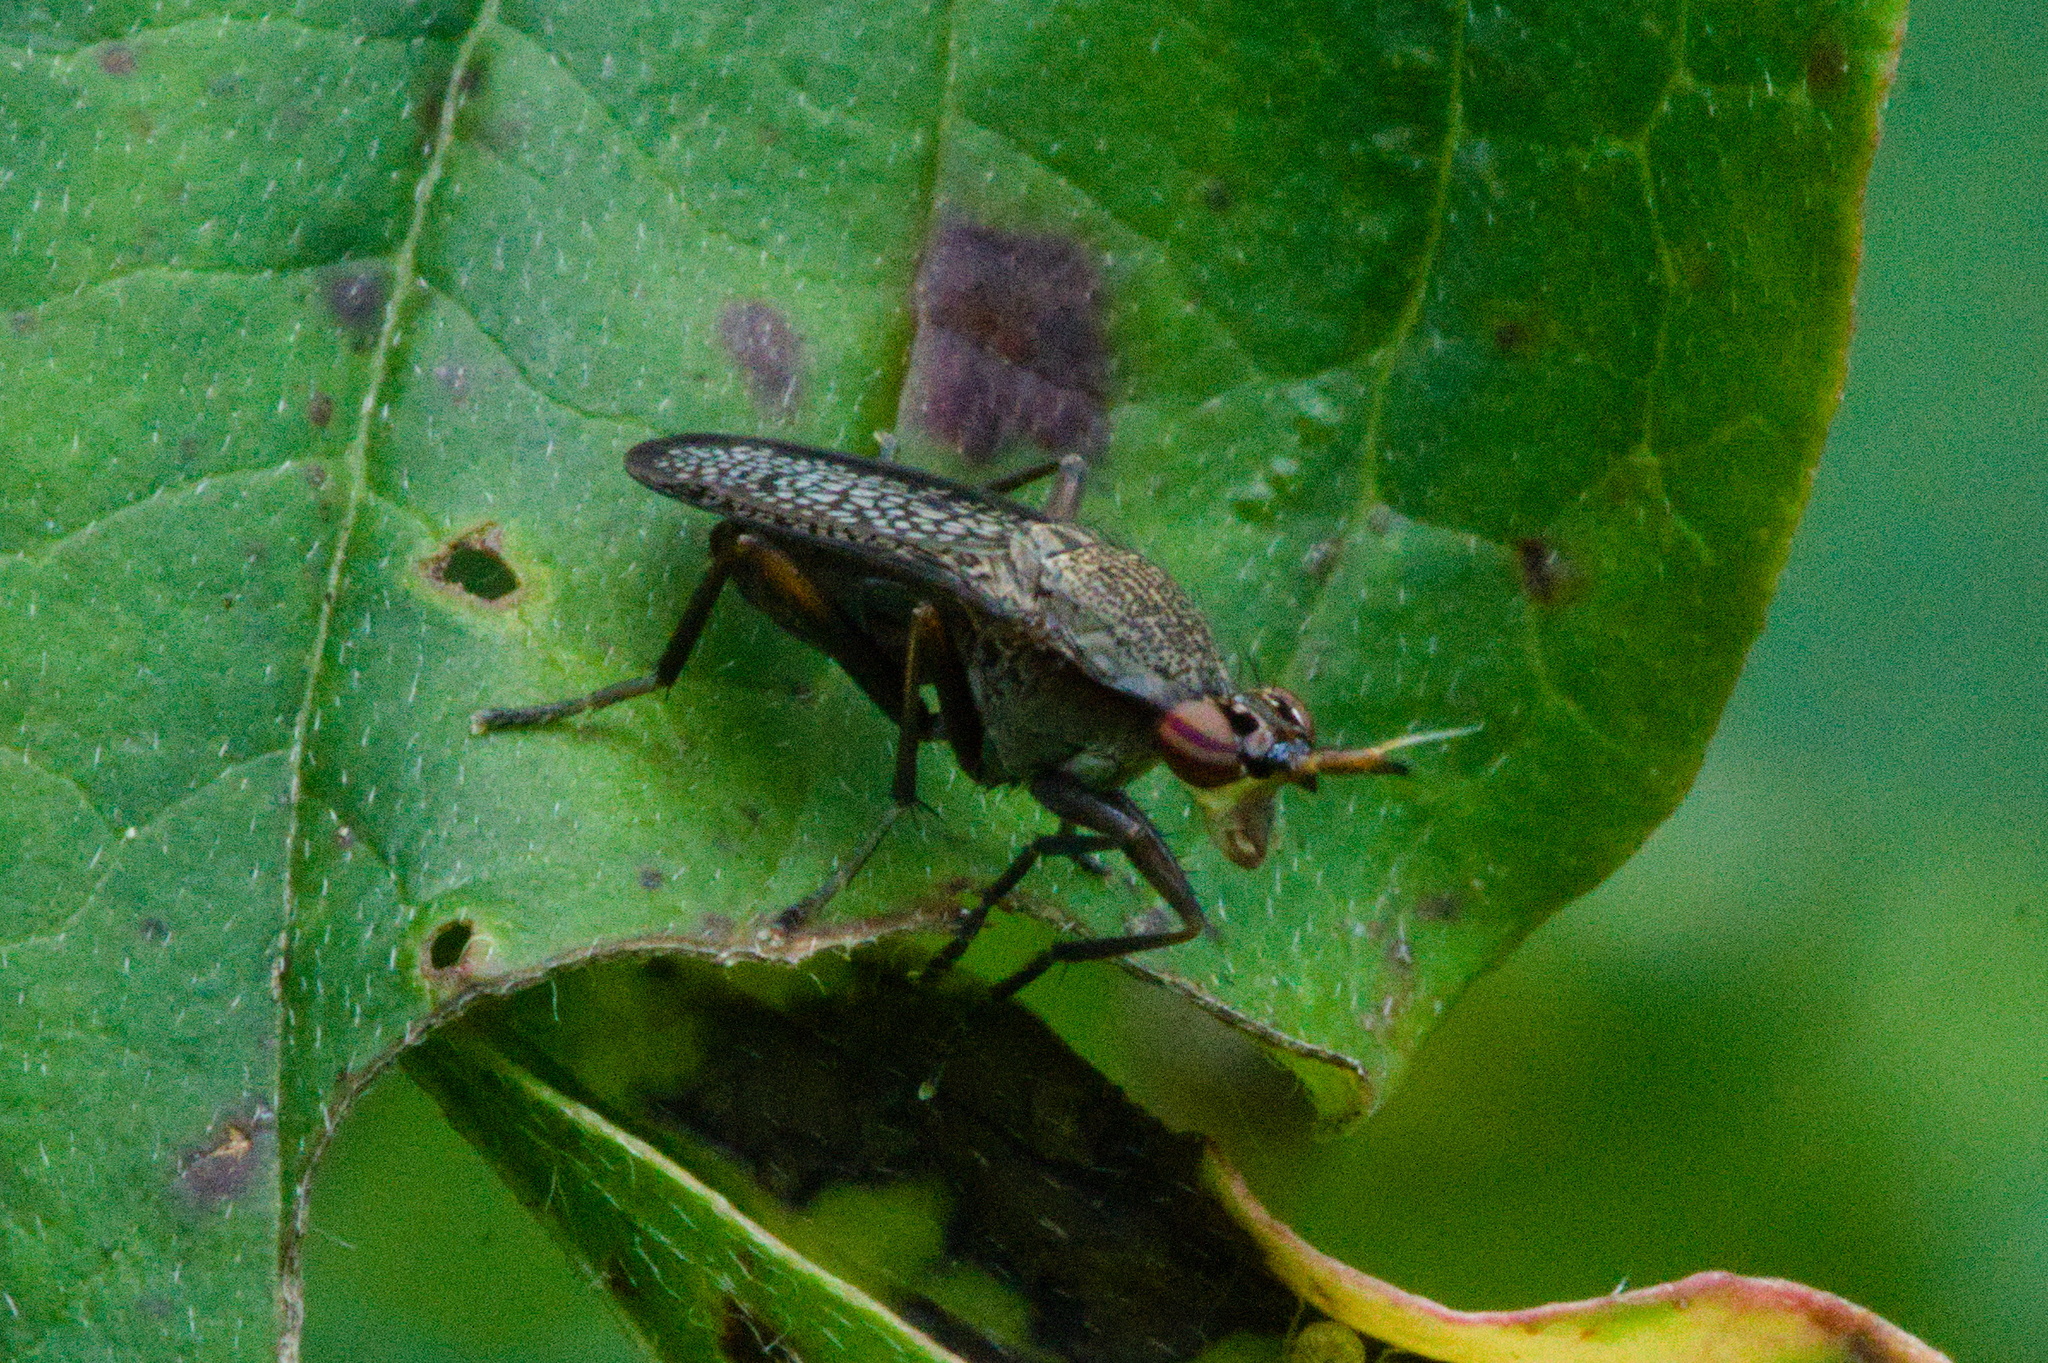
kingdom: Animalia
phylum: Arthropoda
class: Insecta
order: Diptera
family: Sciomyzidae
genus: Coremacera
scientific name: Coremacera marginata
